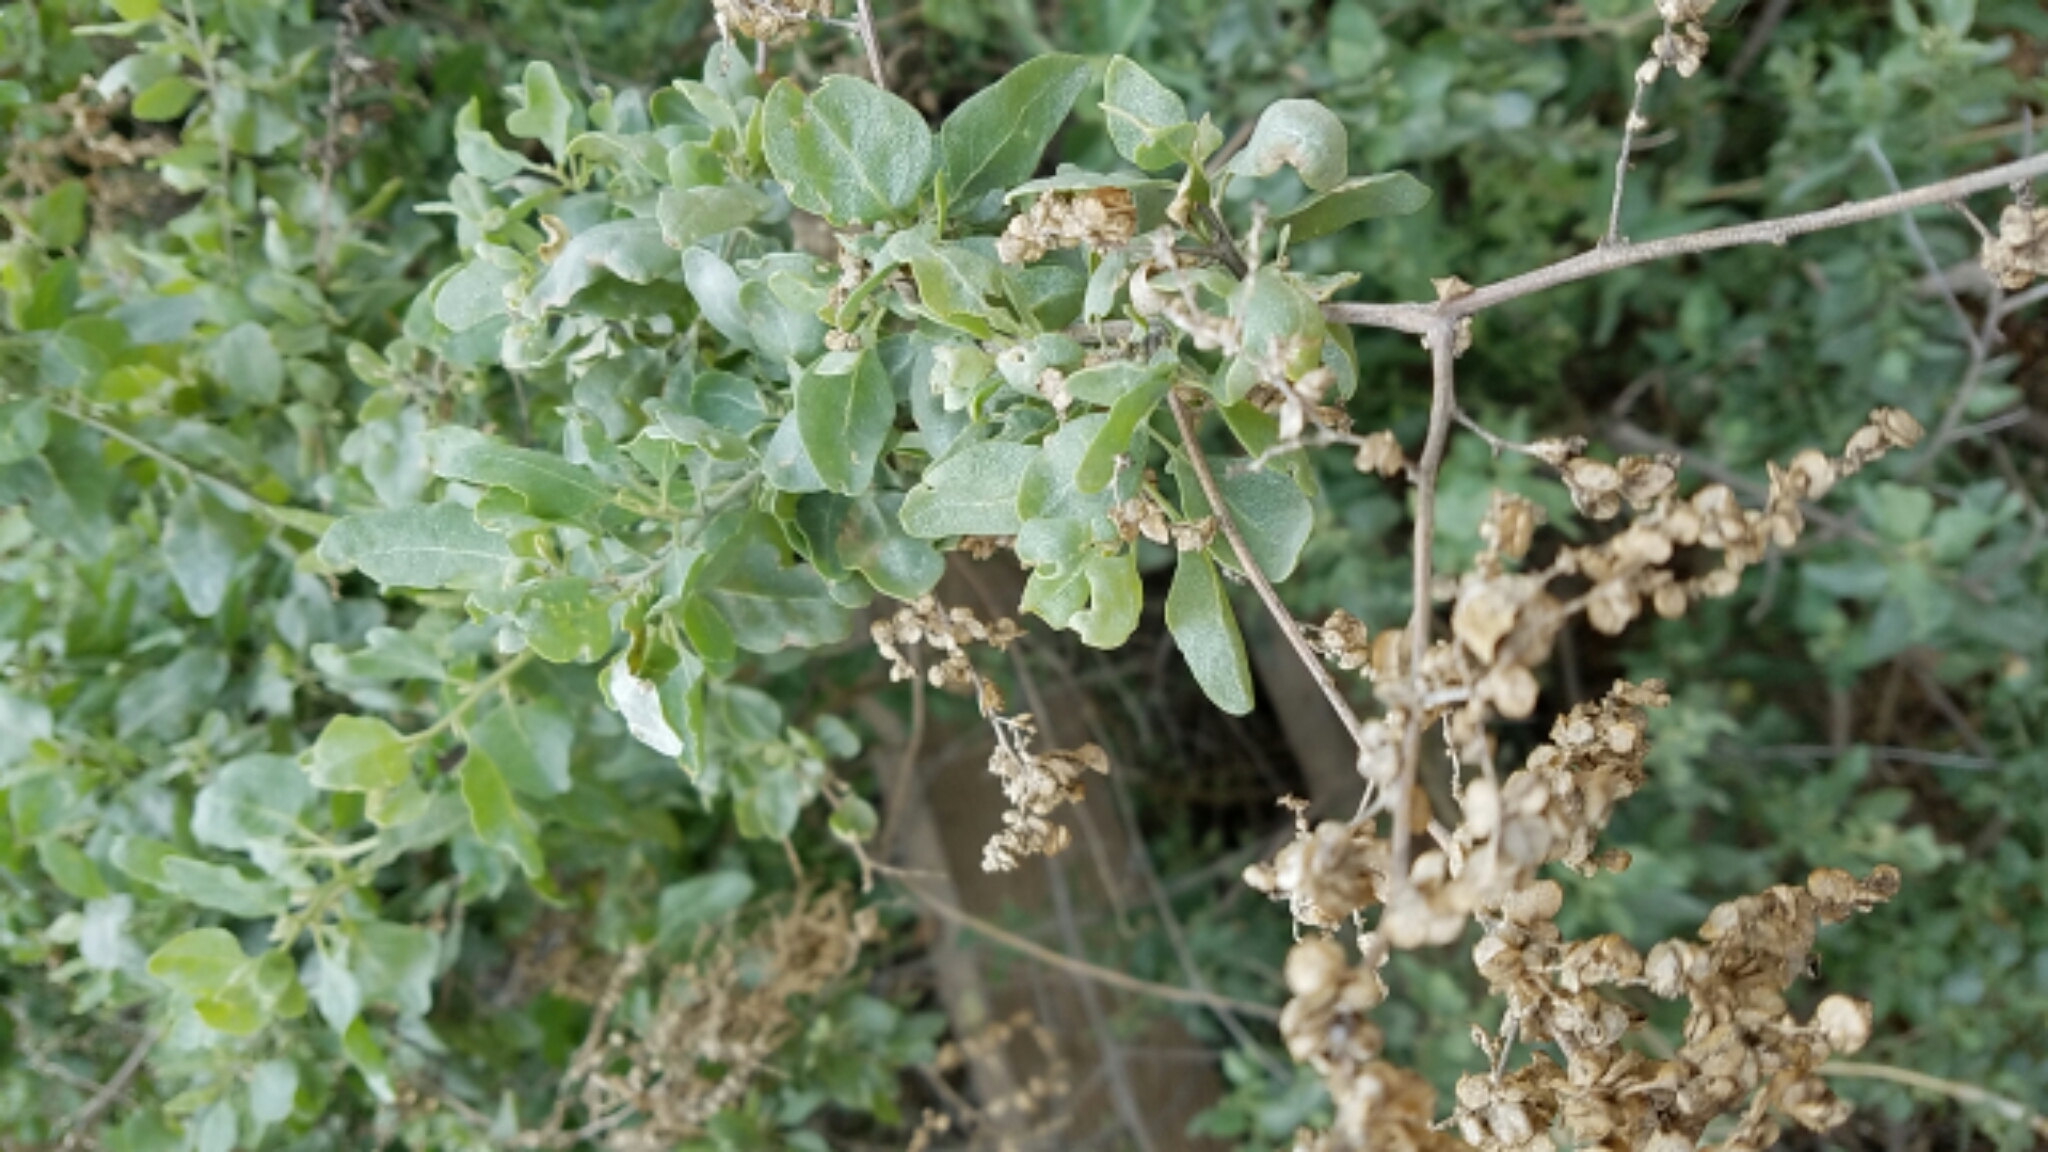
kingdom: Plantae
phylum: Tracheophyta
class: Magnoliopsida
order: Caryophyllales
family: Amaranthaceae
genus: Atriplex
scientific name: Atriplex lentiformis
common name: Big saltbush
